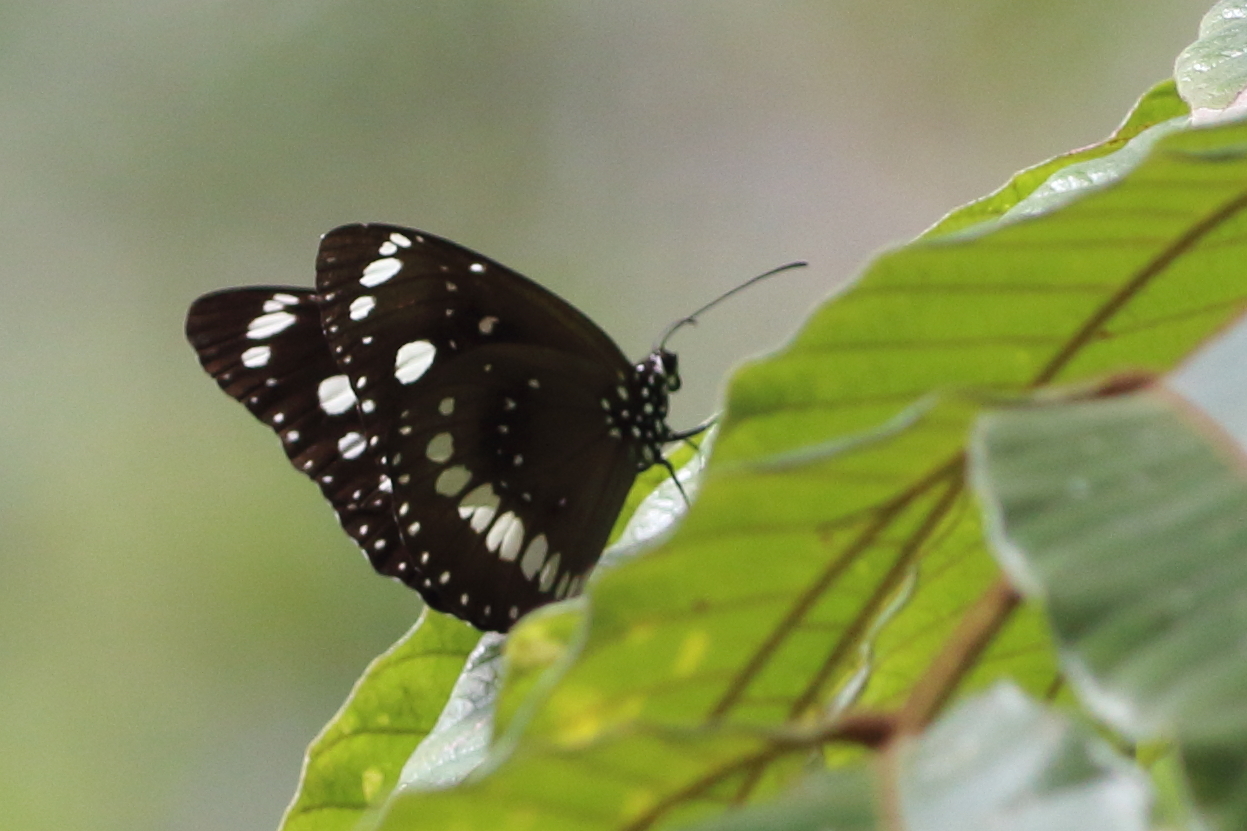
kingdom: Animalia
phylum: Arthropoda
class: Insecta
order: Lepidoptera
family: Nymphalidae
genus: Euploea
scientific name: Euploea core
